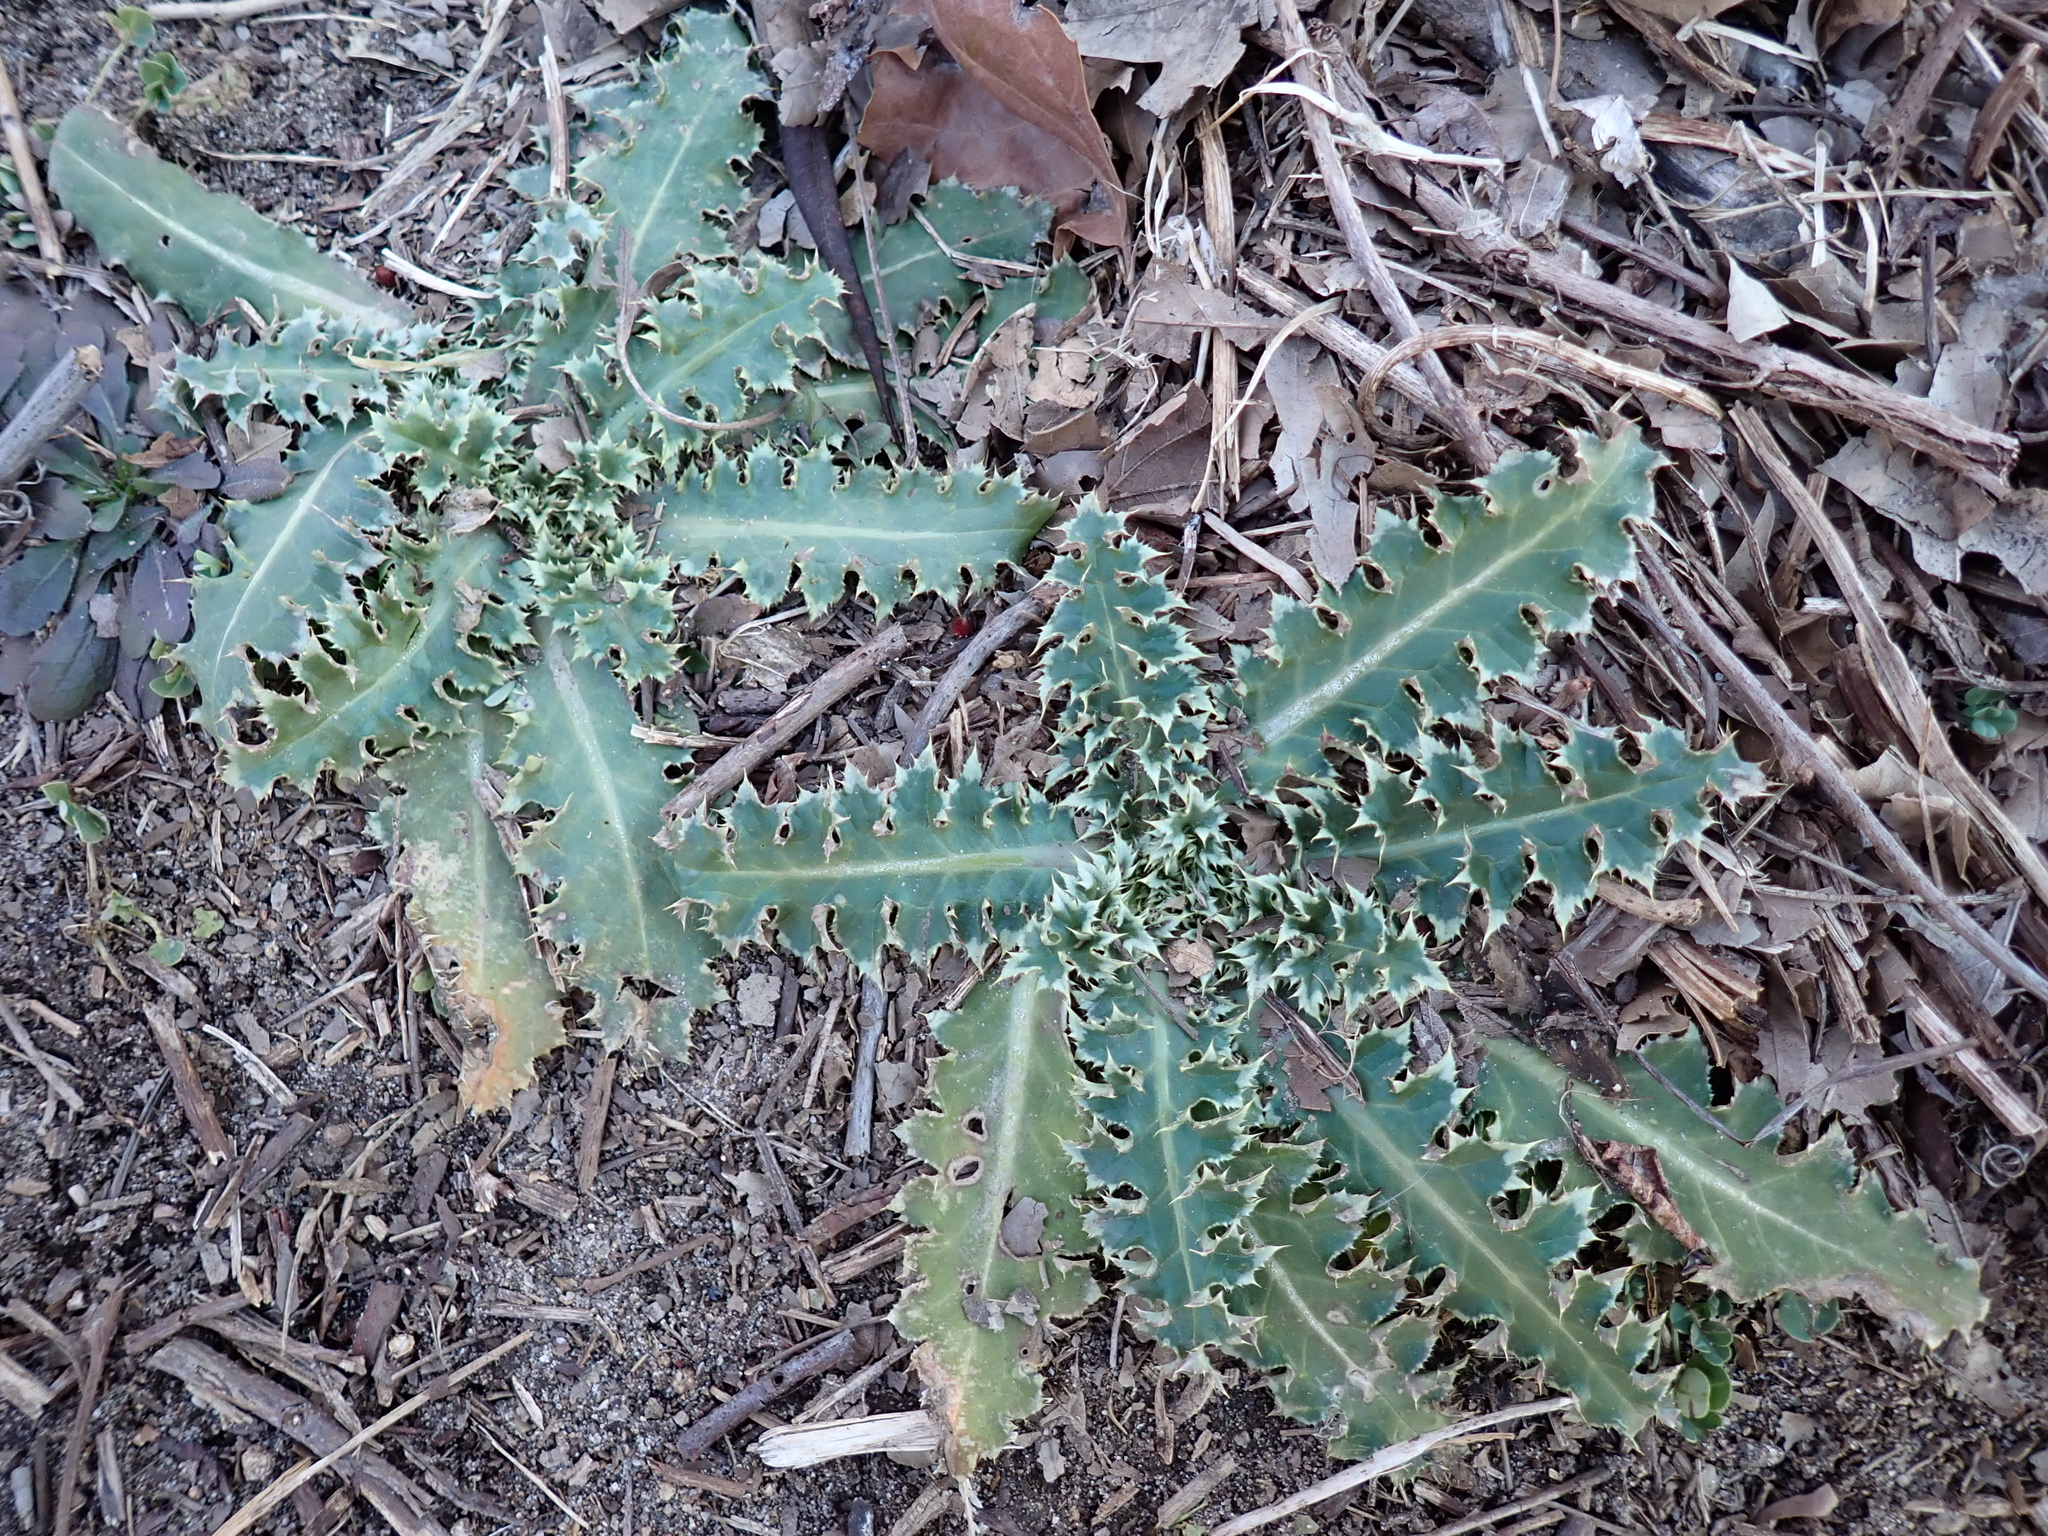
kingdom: Plantae
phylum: Tracheophyta
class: Magnoliopsida
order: Asterales
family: Asteraceae
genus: Carduus
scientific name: Carduus nutans
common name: Musk thistle
